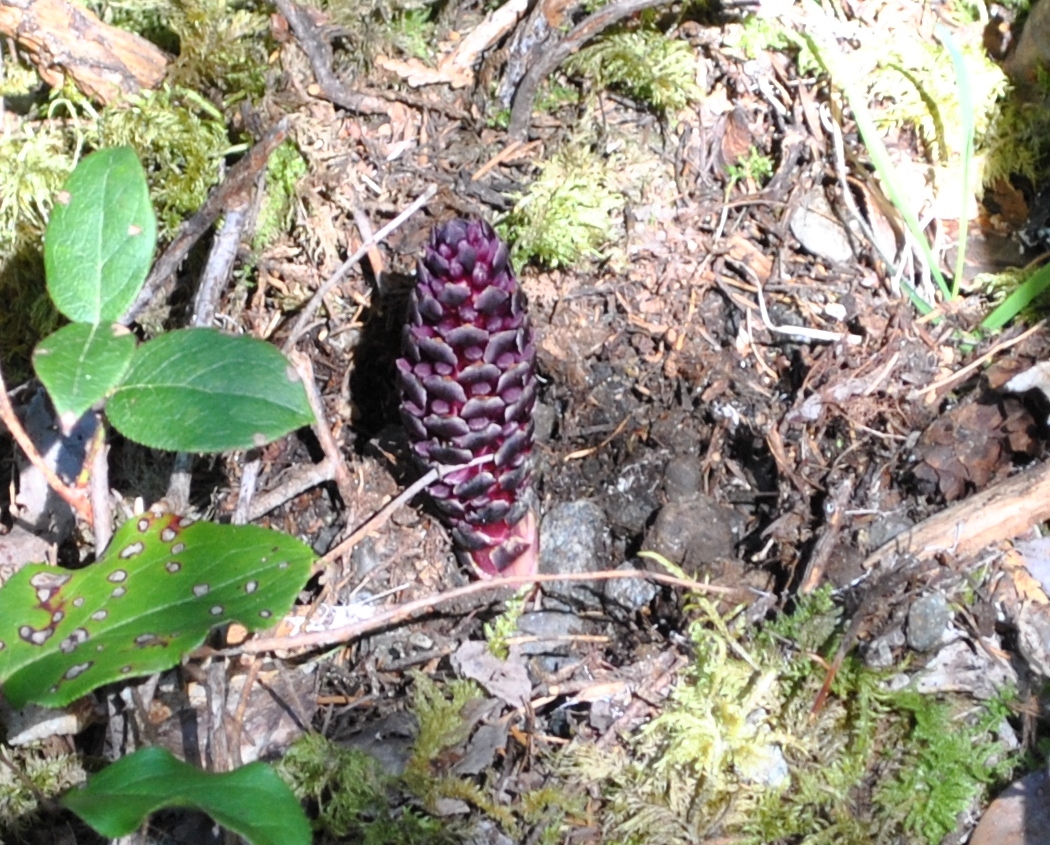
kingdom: Plantae
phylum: Tracheophyta
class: Magnoliopsida
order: Lamiales
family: Orobanchaceae
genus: Kopsiopsis
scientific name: Kopsiopsis hookeri
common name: Hooker's groundcone
